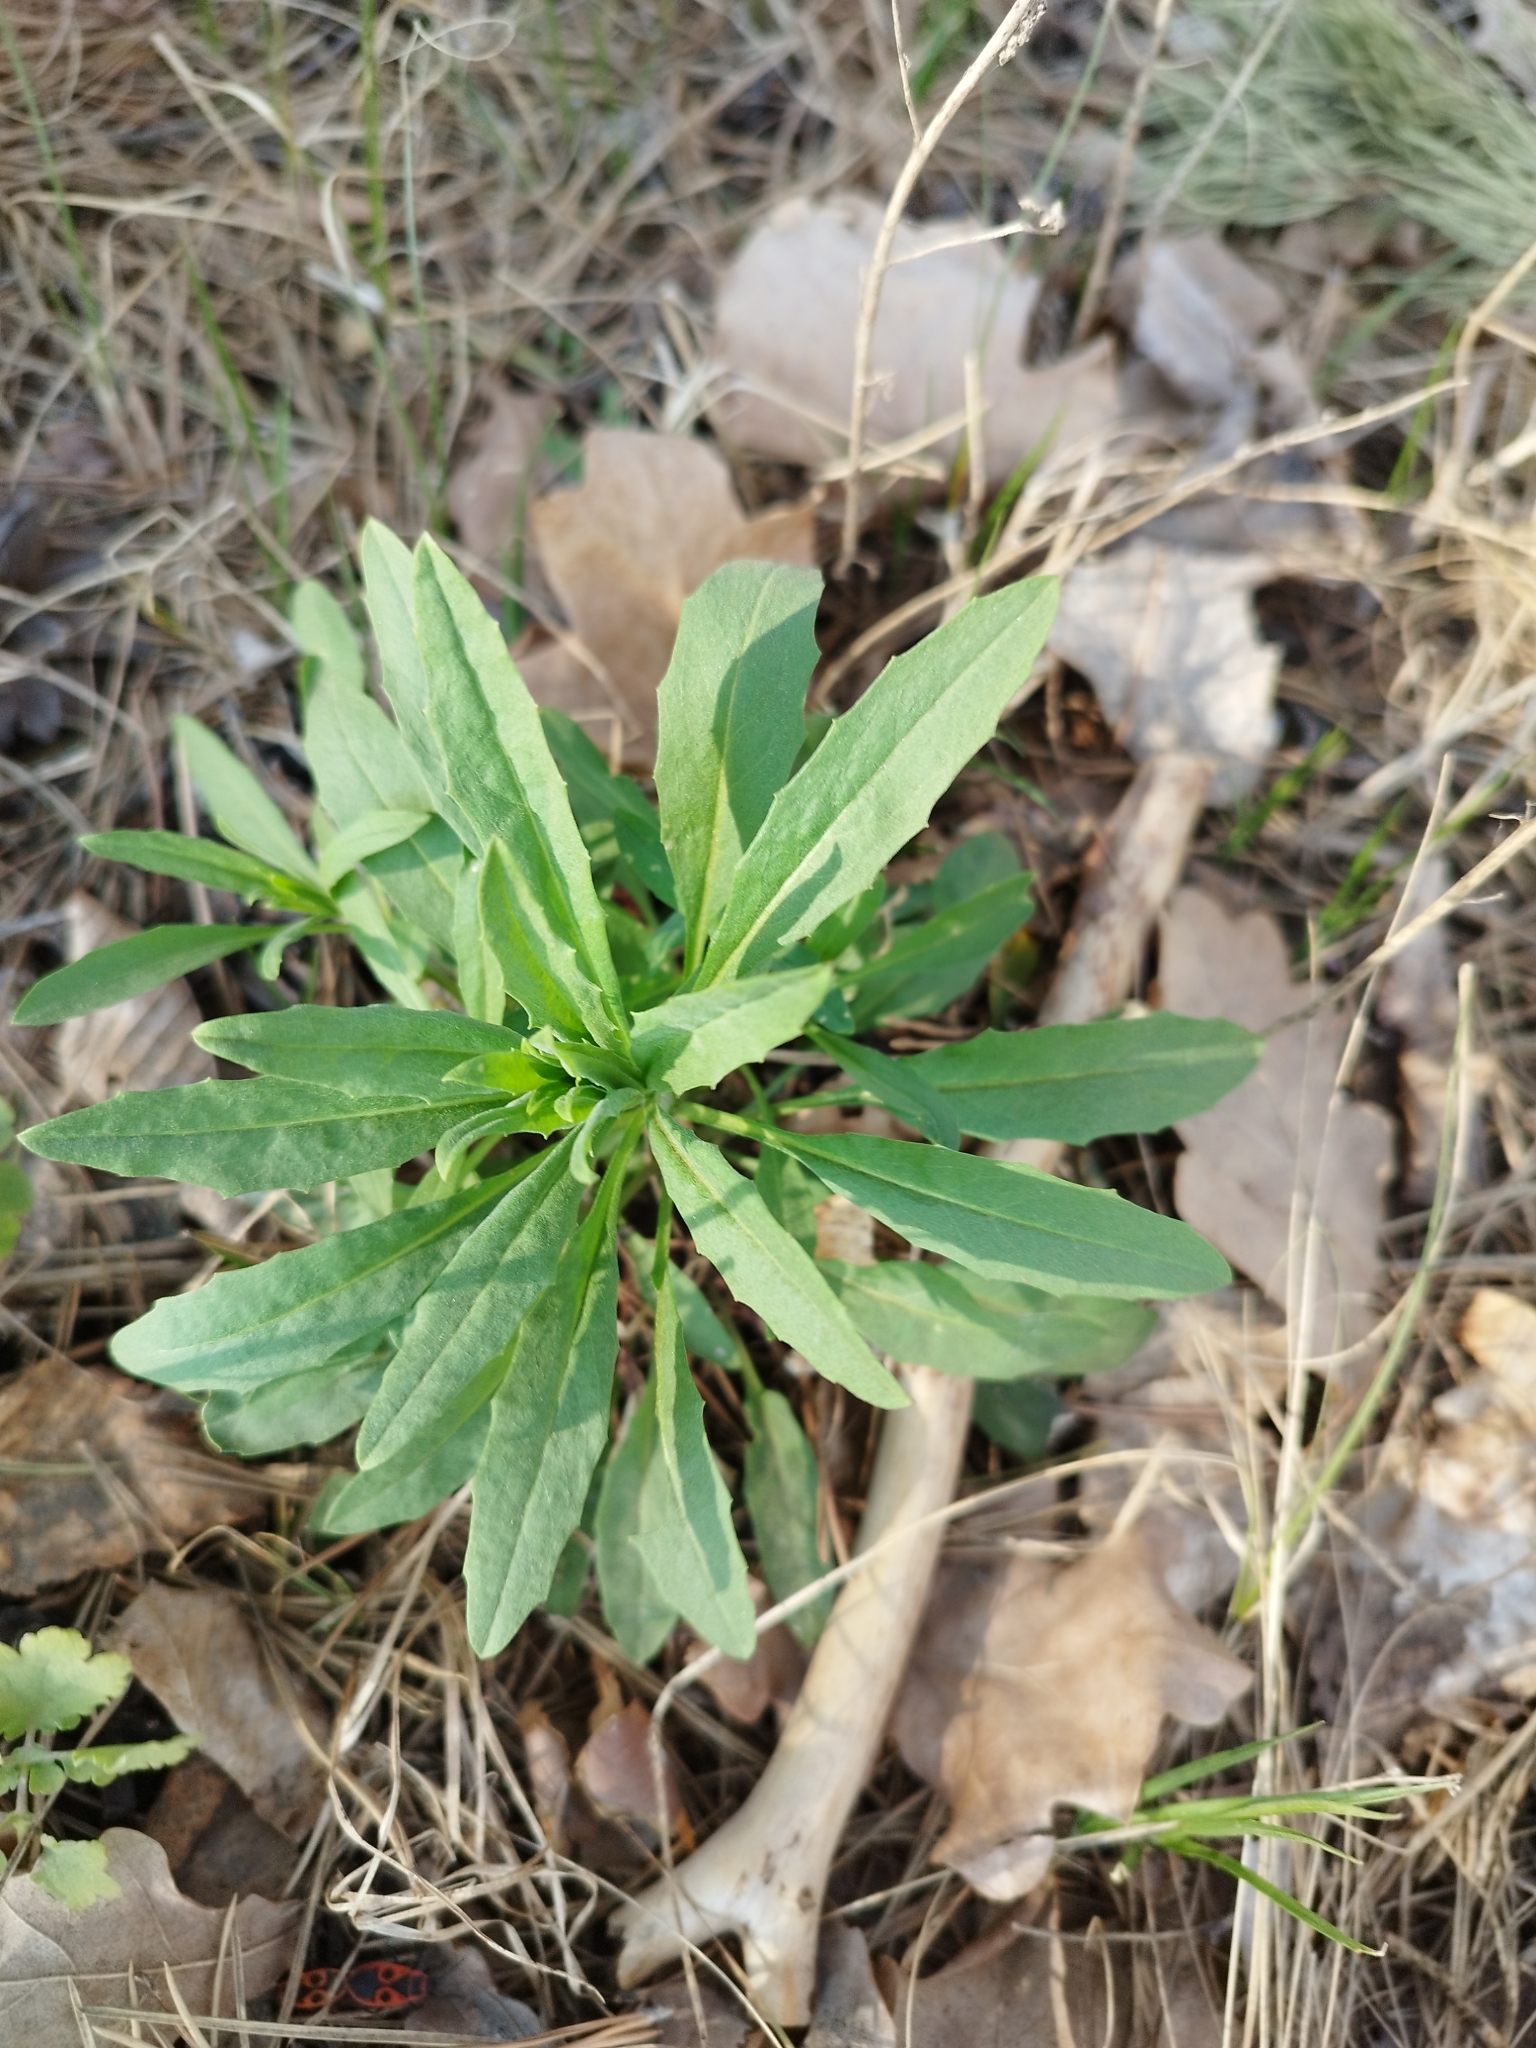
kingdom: Plantae
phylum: Tracheophyta
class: Magnoliopsida
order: Brassicales
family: Brassicaceae
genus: Erysimum
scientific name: Erysimum cheiranthoides
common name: Treacle mustard
